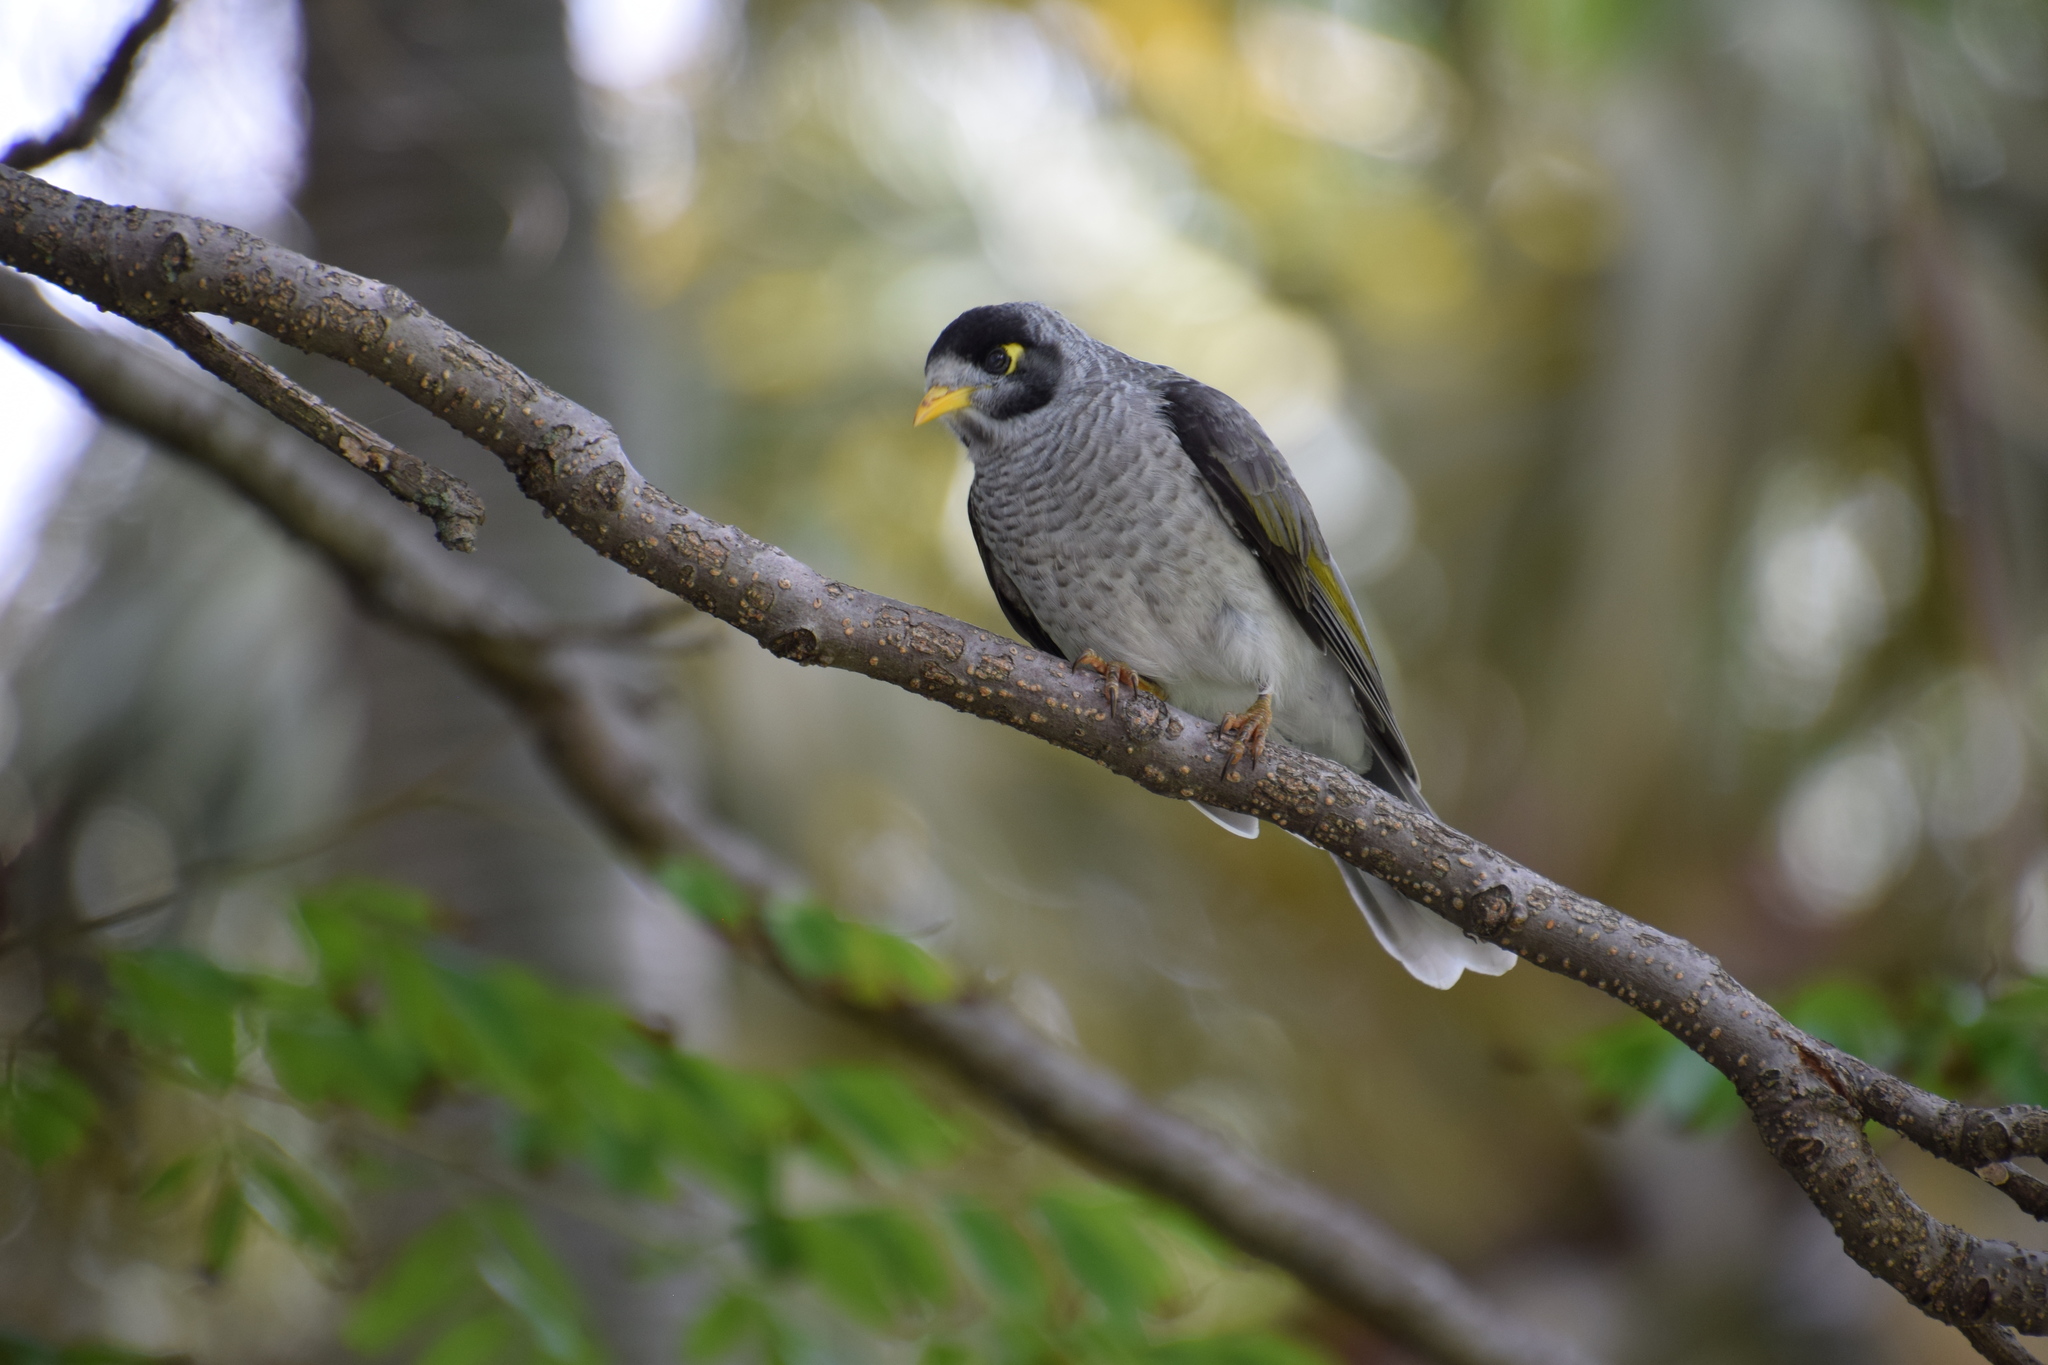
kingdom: Animalia
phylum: Chordata
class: Aves
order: Passeriformes
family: Meliphagidae
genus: Manorina
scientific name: Manorina melanocephala
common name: Noisy miner
